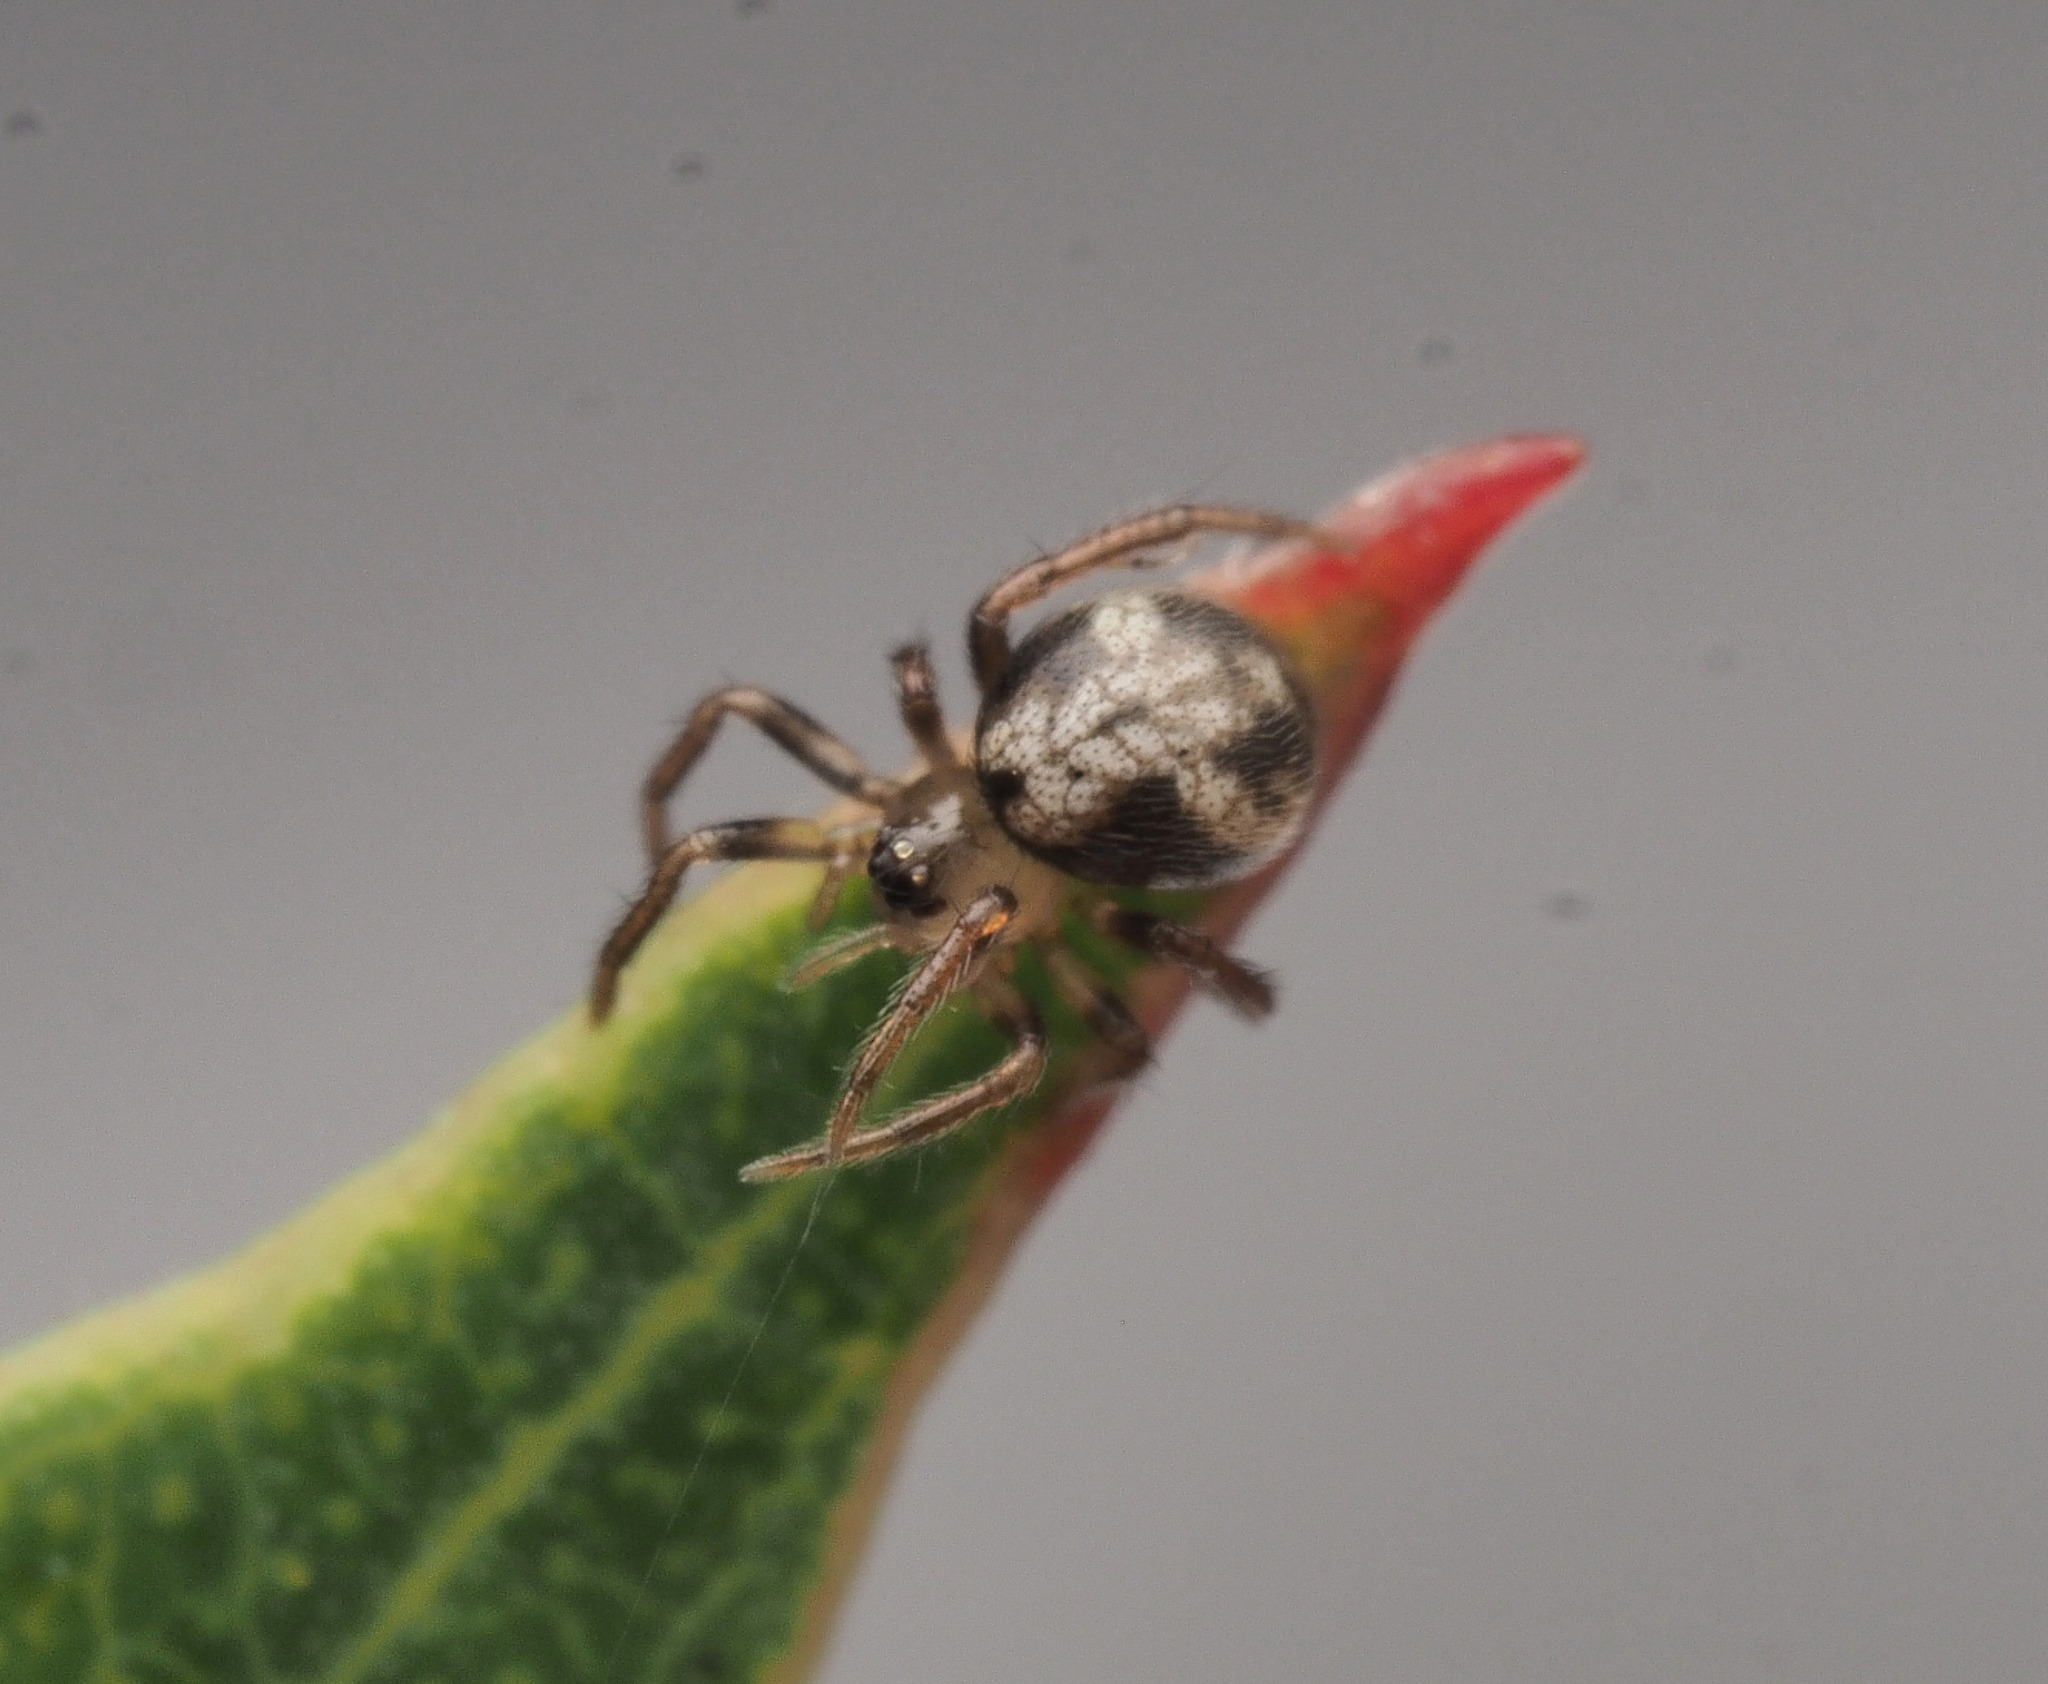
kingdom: Animalia
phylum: Arthropoda
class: Arachnida
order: Araneae
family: Theridiidae
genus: Phycosoma
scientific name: Phycosoma
